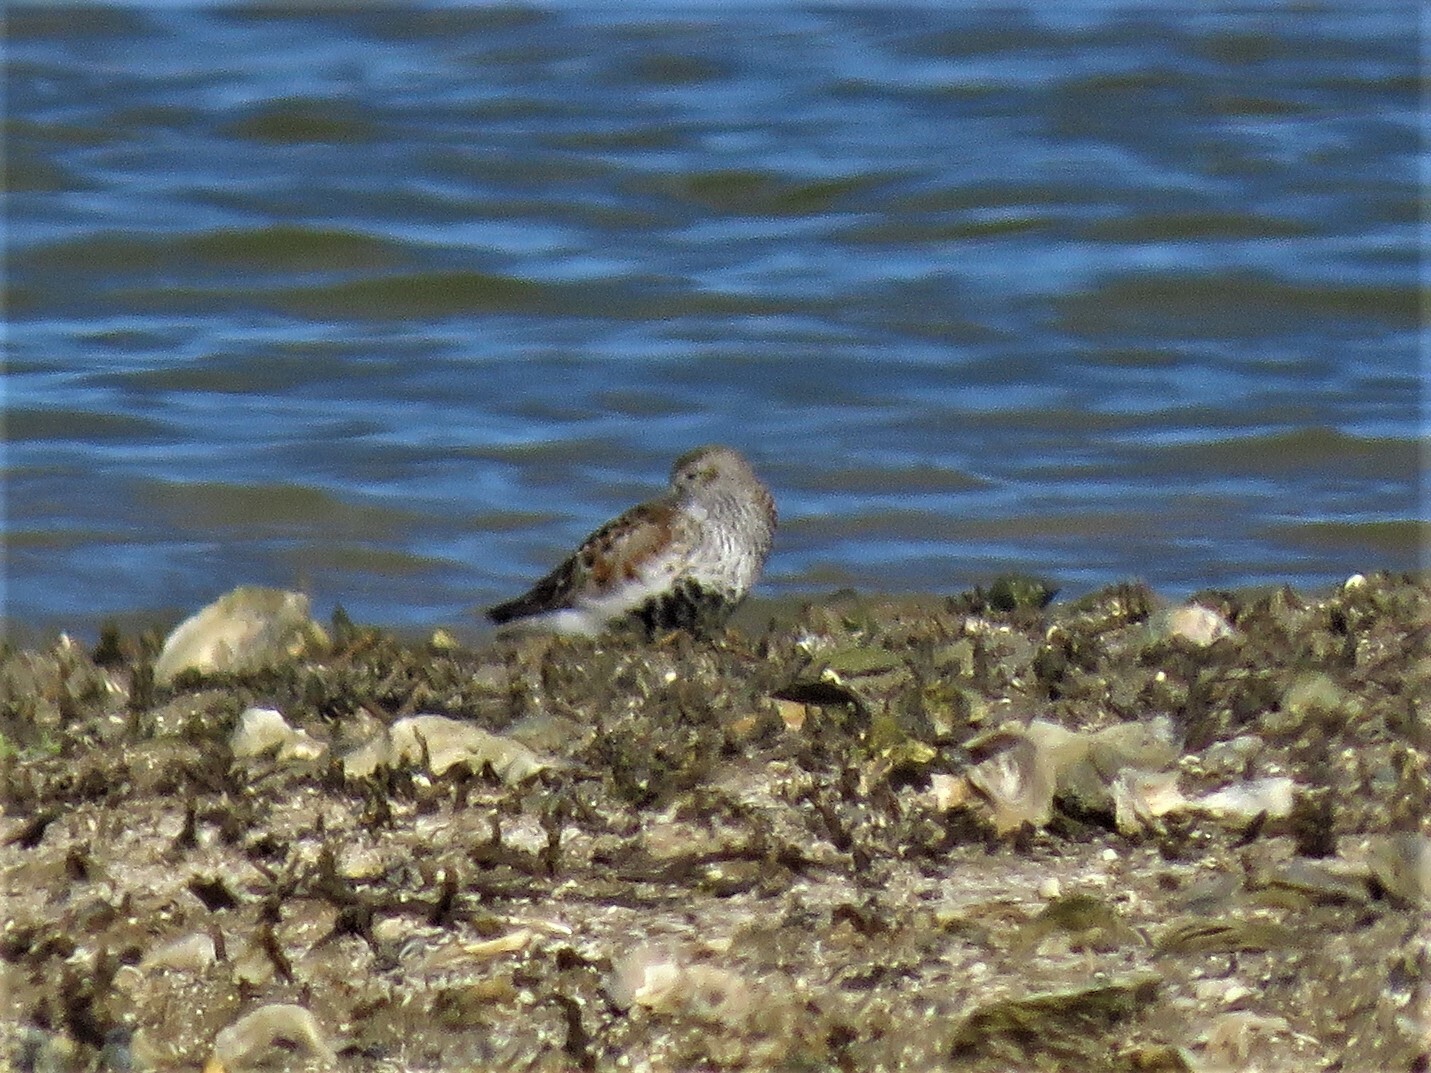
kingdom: Animalia
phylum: Chordata
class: Aves
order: Charadriiformes
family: Scolopacidae
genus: Calidris
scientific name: Calidris alpina
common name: Dunlin
